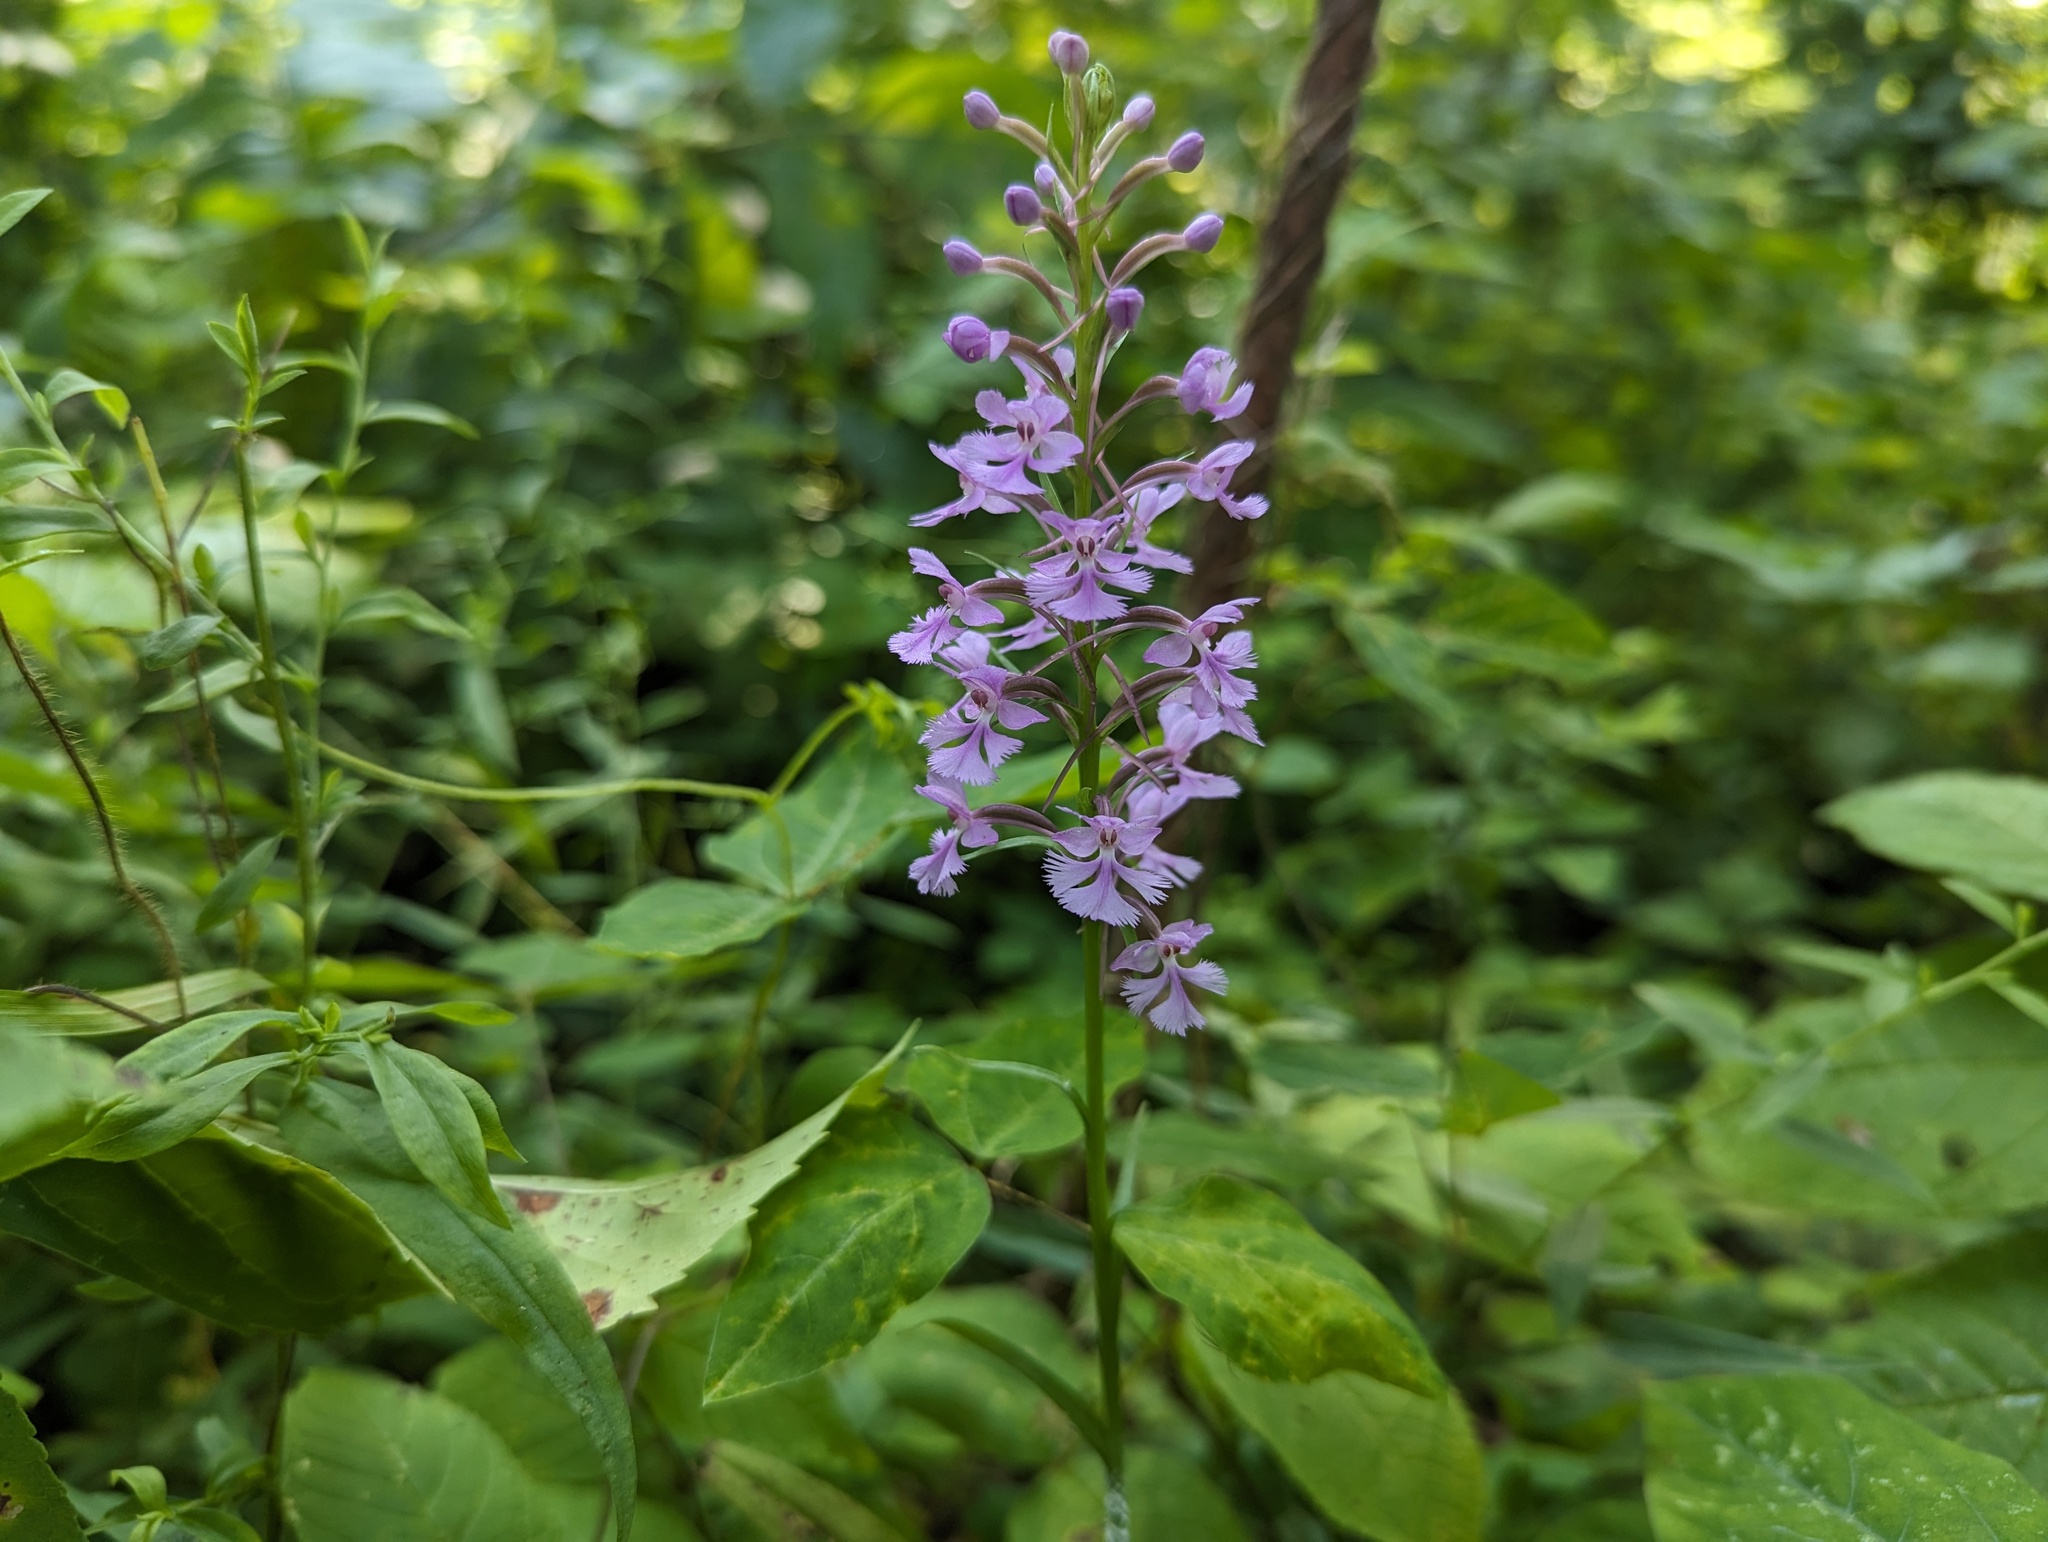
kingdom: Plantae
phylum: Tracheophyta
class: Liliopsida
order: Asparagales
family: Orchidaceae
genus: Platanthera
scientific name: Platanthera psycodes
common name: Lesser purple fringed orchid
